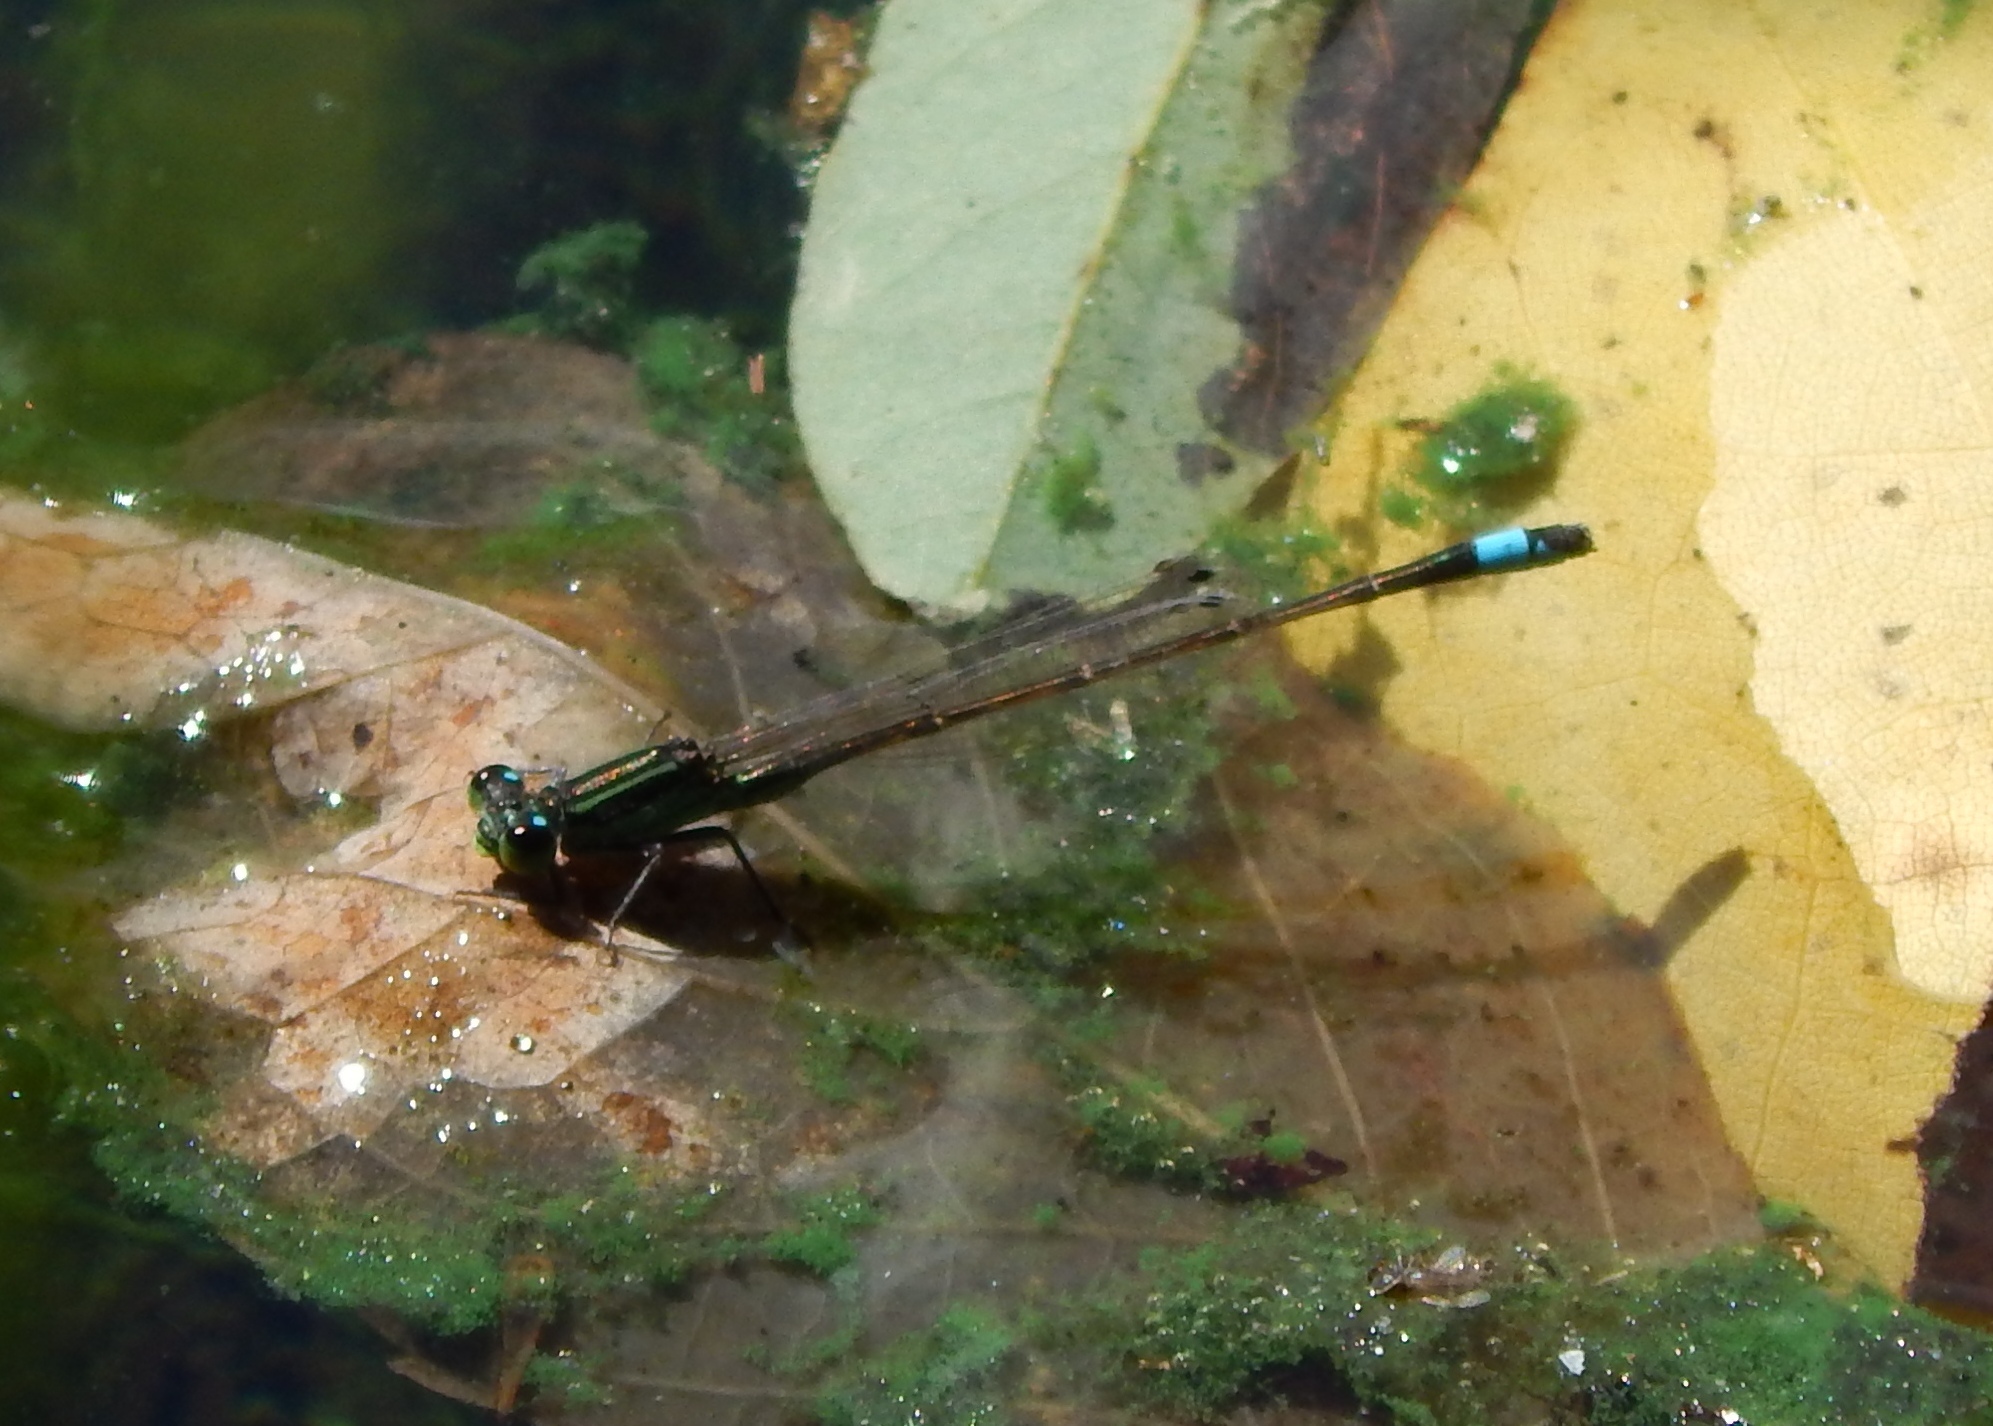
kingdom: Animalia
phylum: Arthropoda
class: Insecta
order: Odonata
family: Coenagrionidae
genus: Ischnura
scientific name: Ischnura ramburii
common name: Rambur's forktail
